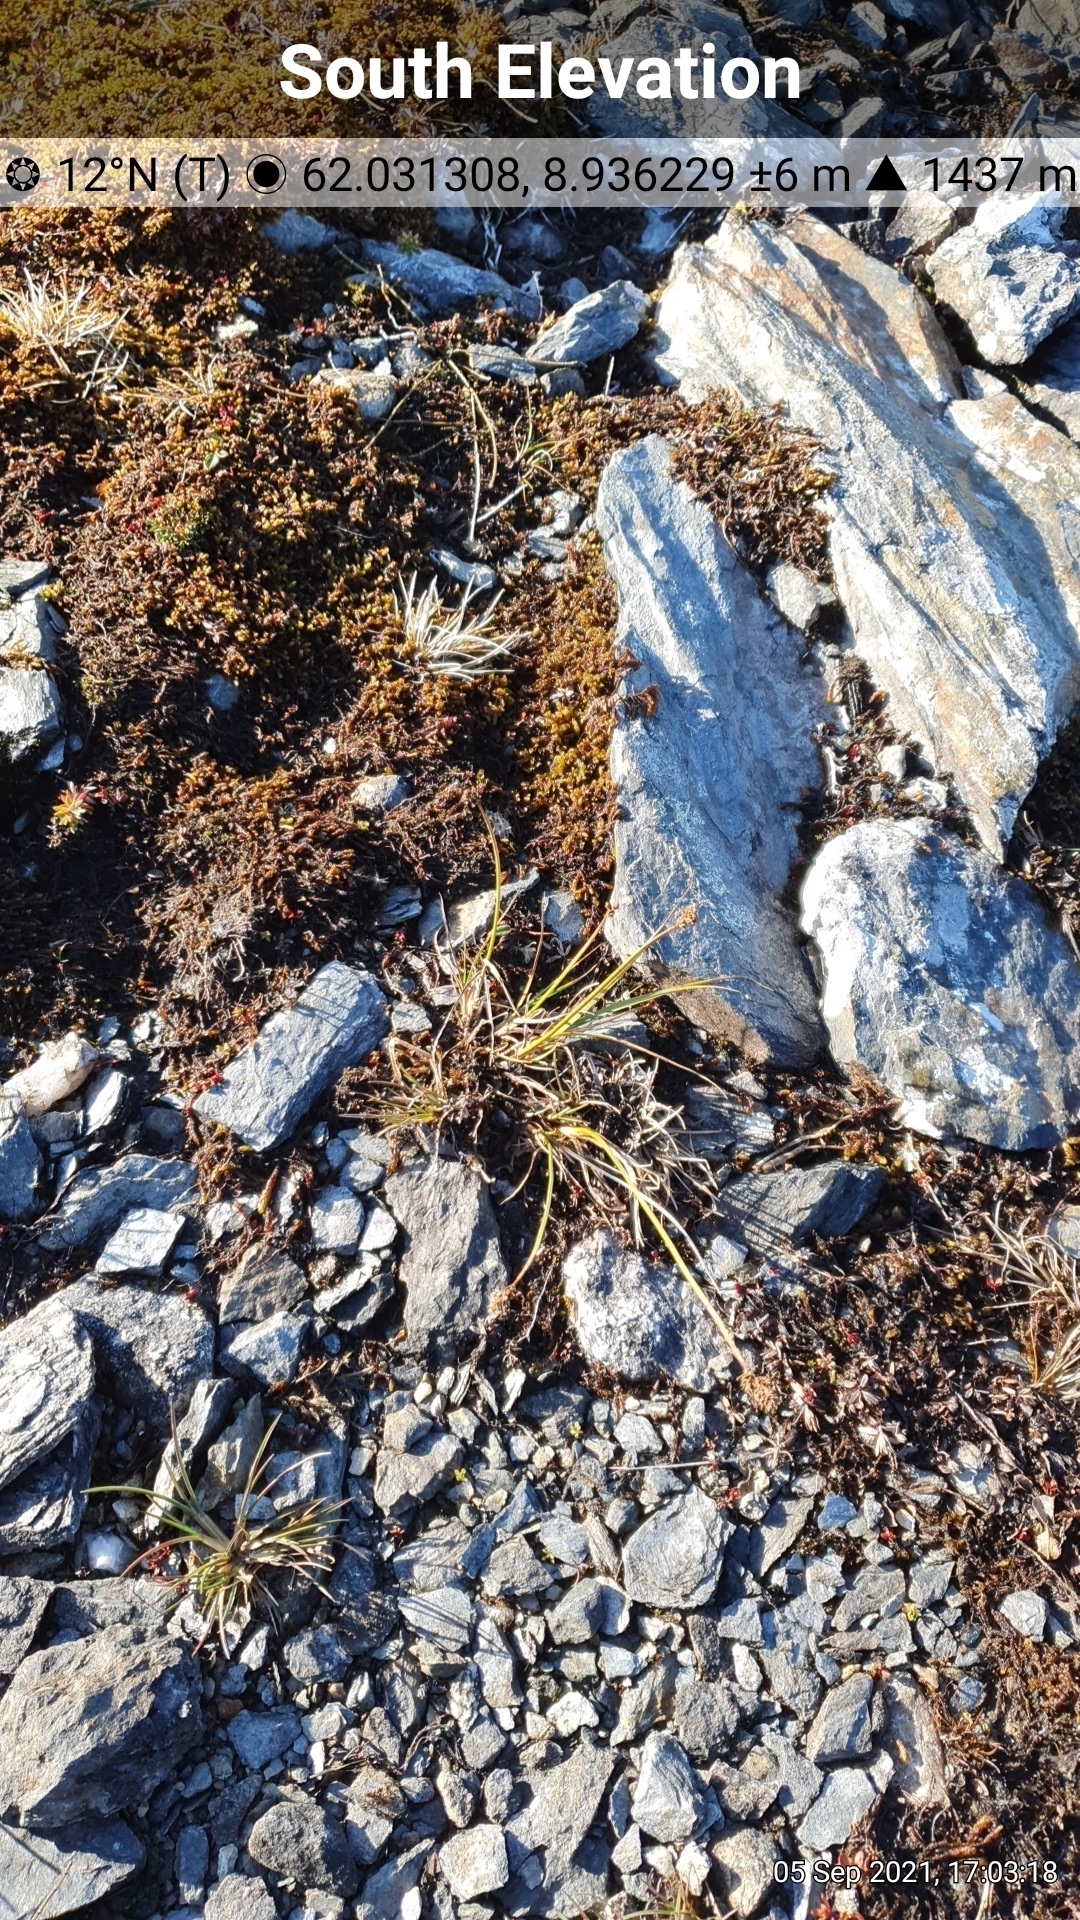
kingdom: Plantae
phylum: Tracheophyta
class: Liliopsida
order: Poales
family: Cyperaceae
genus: Carex
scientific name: Carex lachenalii
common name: Hare's-foot sedge
